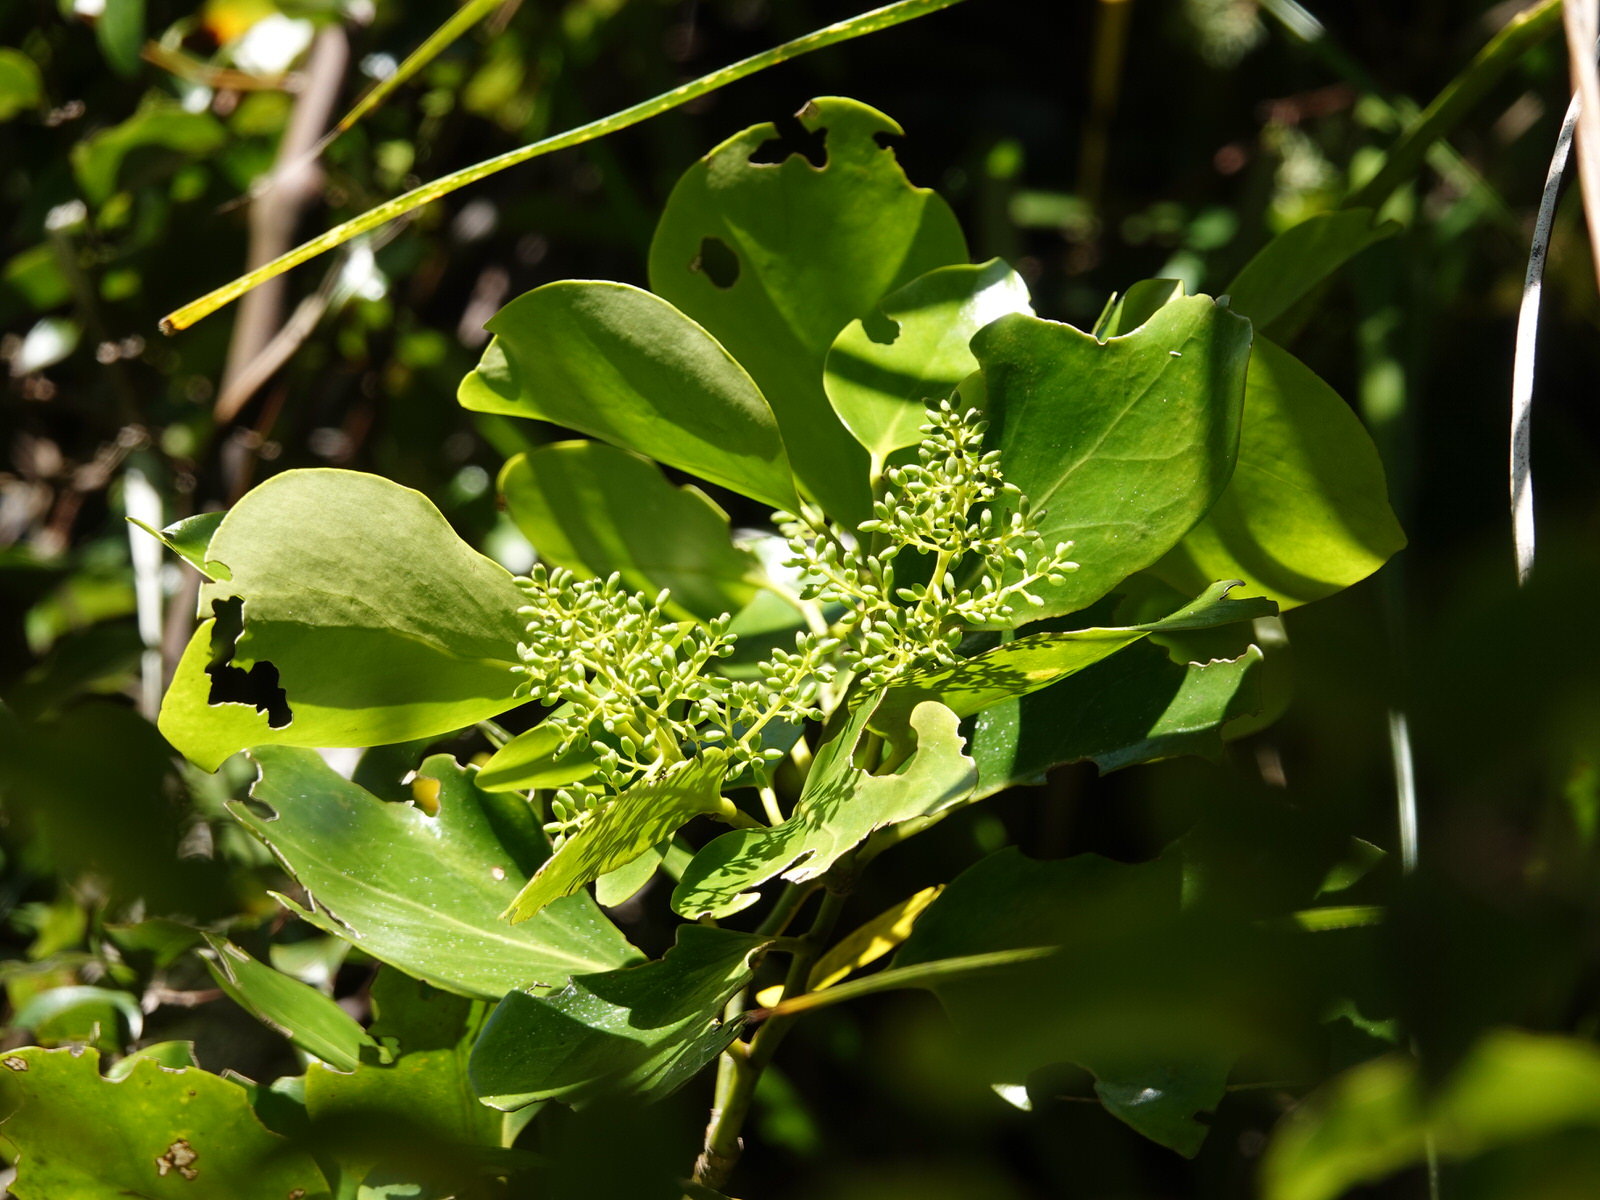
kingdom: Plantae
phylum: Tracheophyta
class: Magnoliopsida
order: Apiales
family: Griseliniaceae
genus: Griselinia
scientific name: Griselinia lucida
